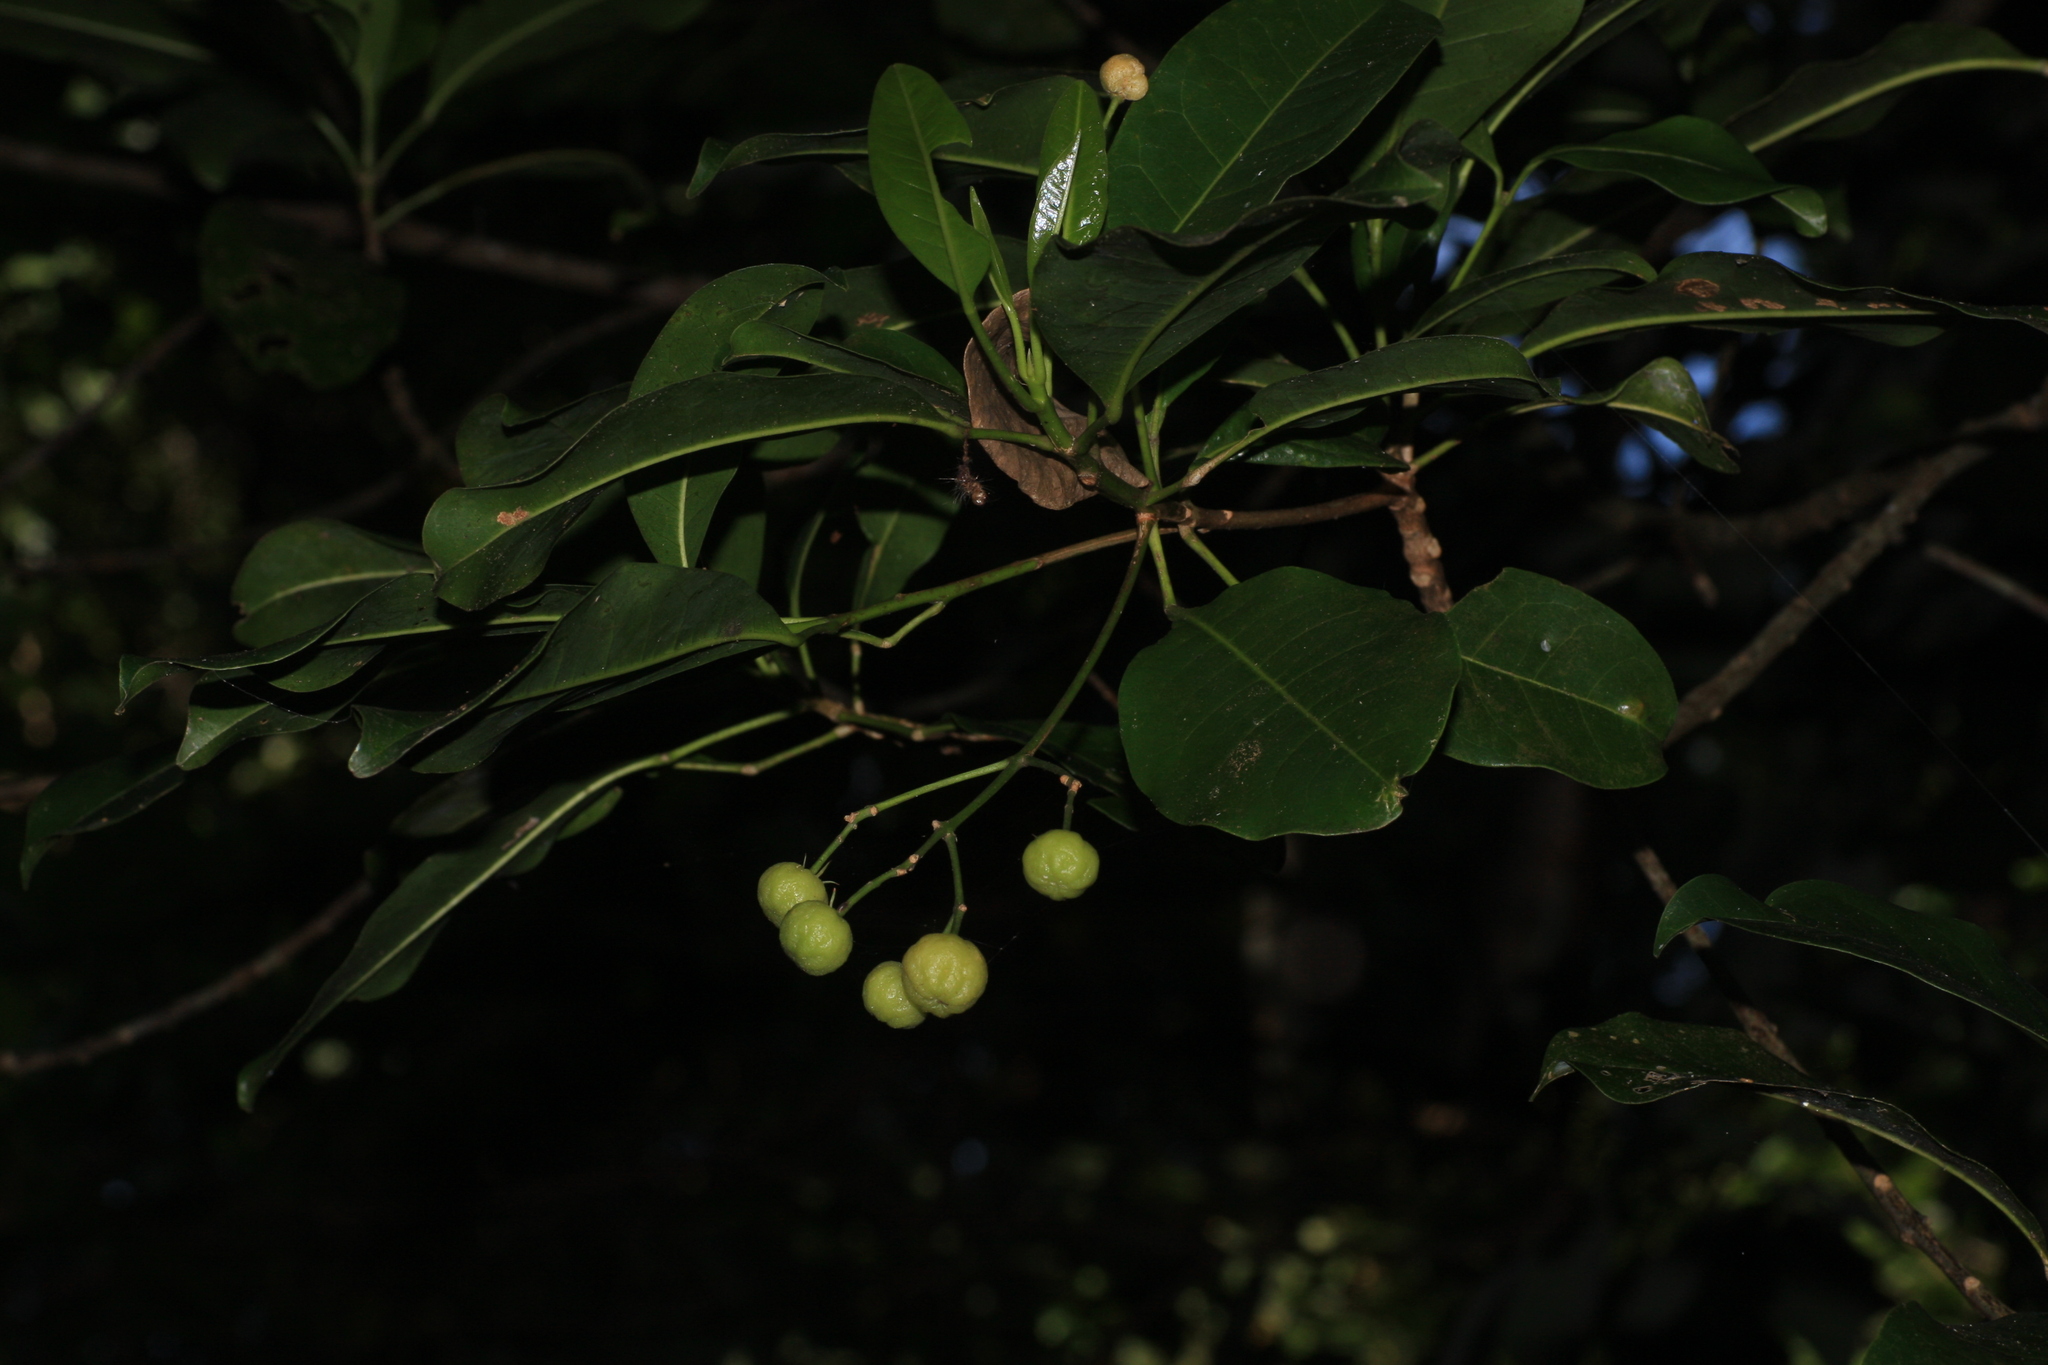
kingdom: Plantae
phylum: Tracheophyta
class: Magnoliopsida
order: Sapindales
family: Rutaceae
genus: Acronychia
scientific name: Acronychia pedunculata
